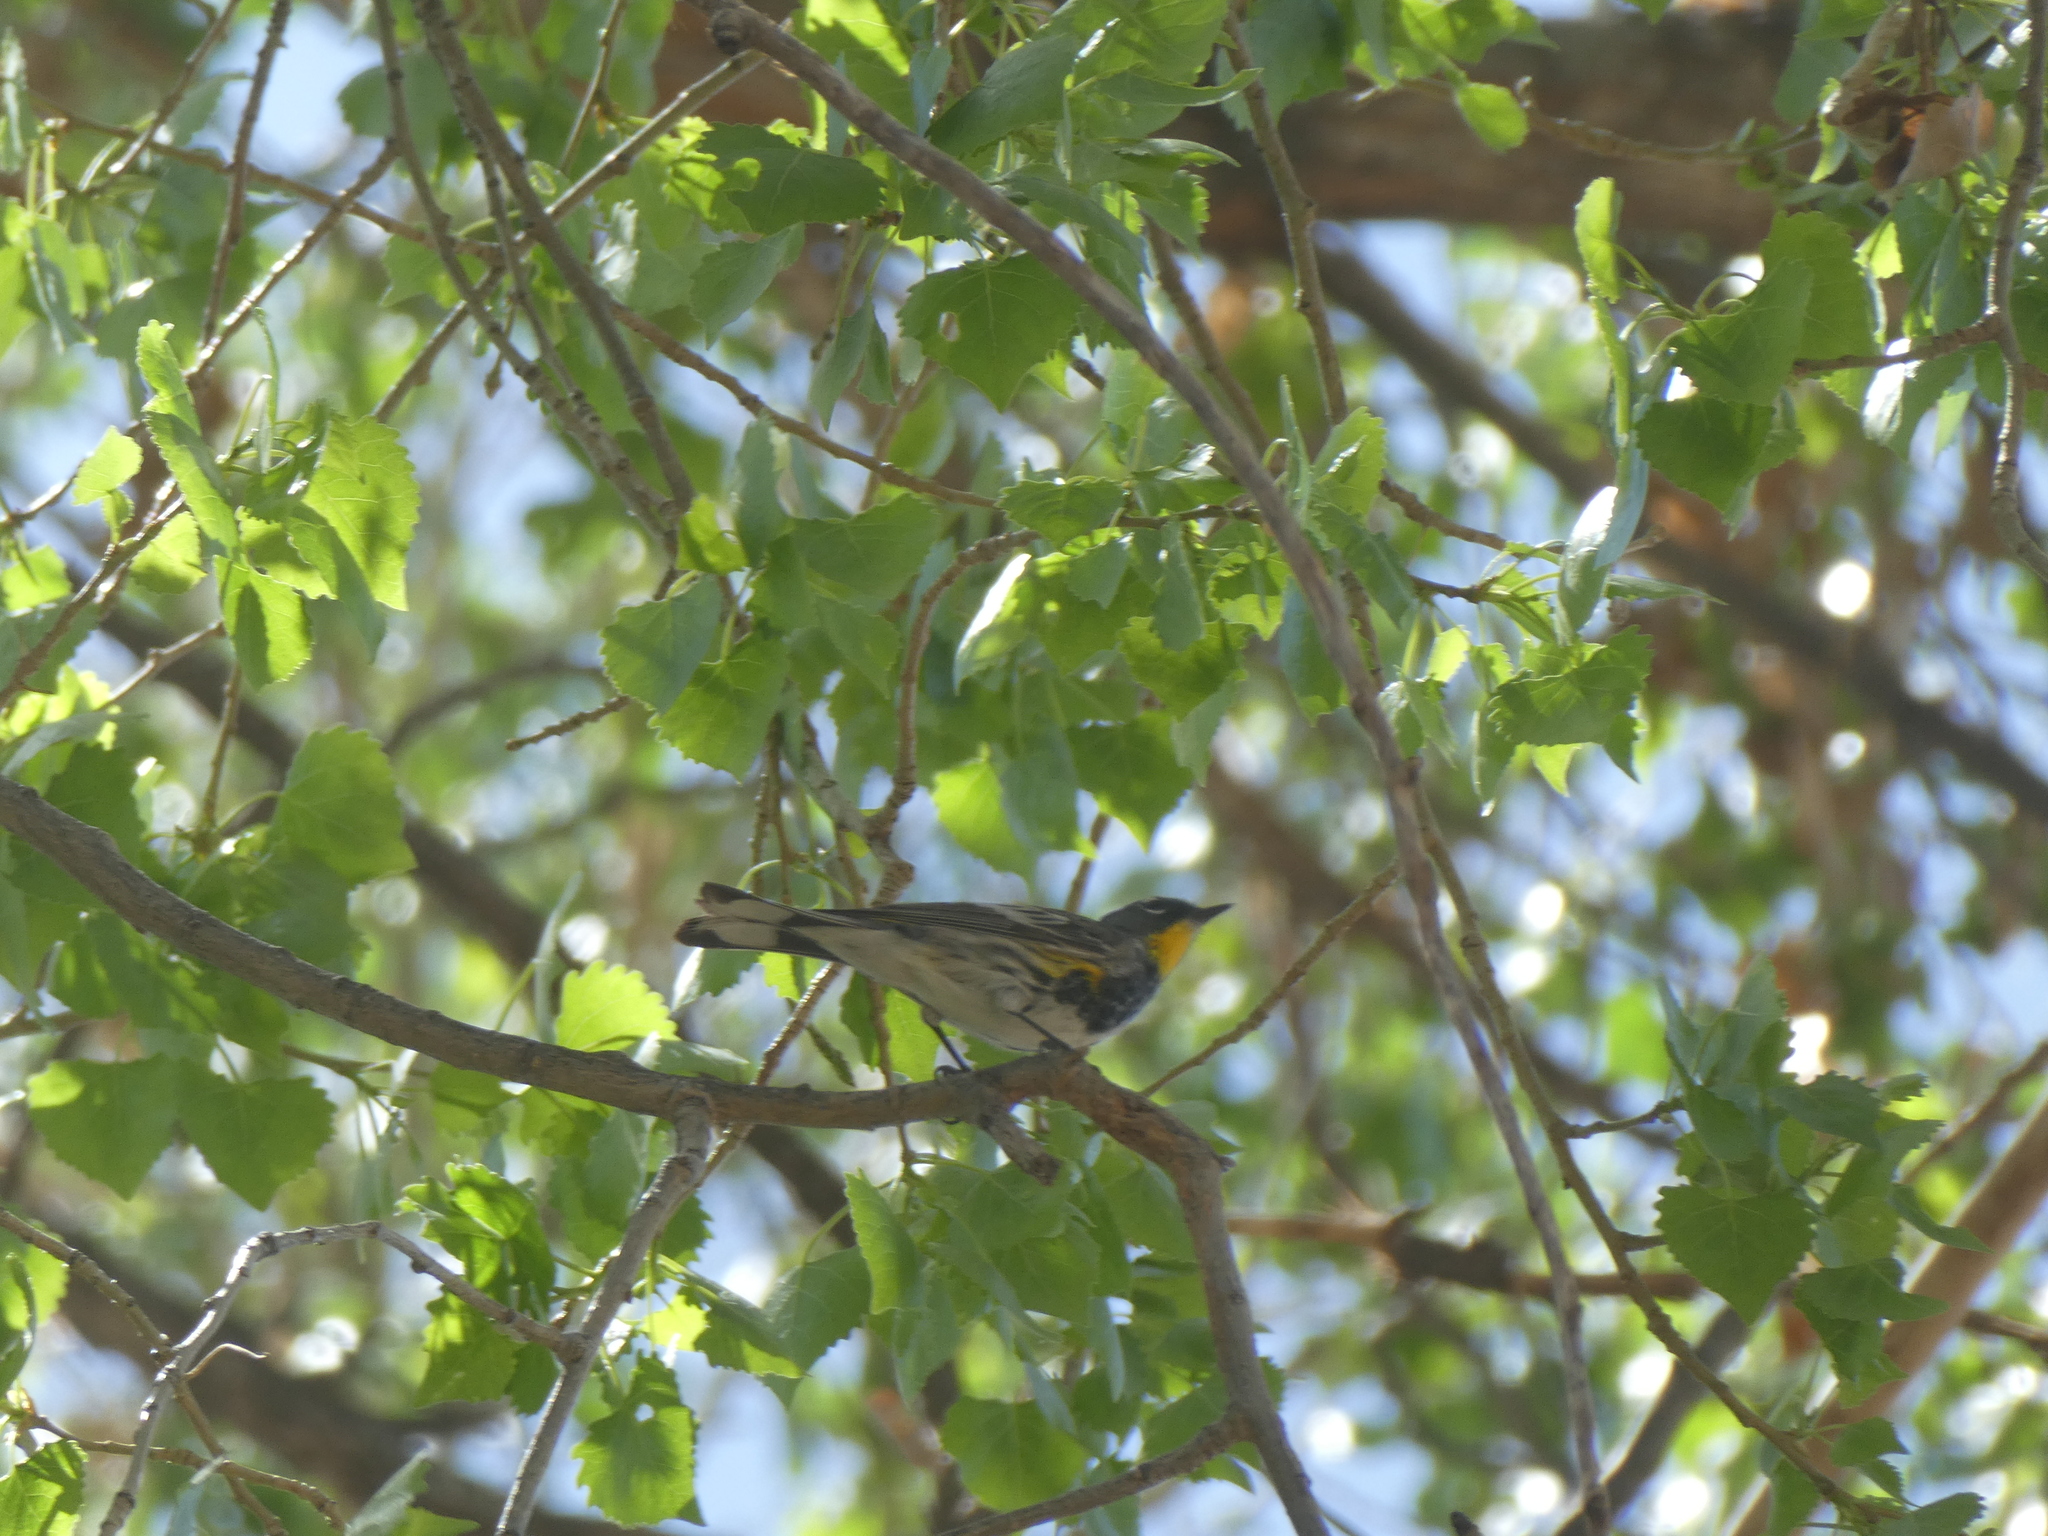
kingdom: Animalia
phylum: Chordata
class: Aves
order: Passeriformes
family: Parulidae
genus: Setophaga
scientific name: Setophaga coronata
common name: Myrtle warbler
